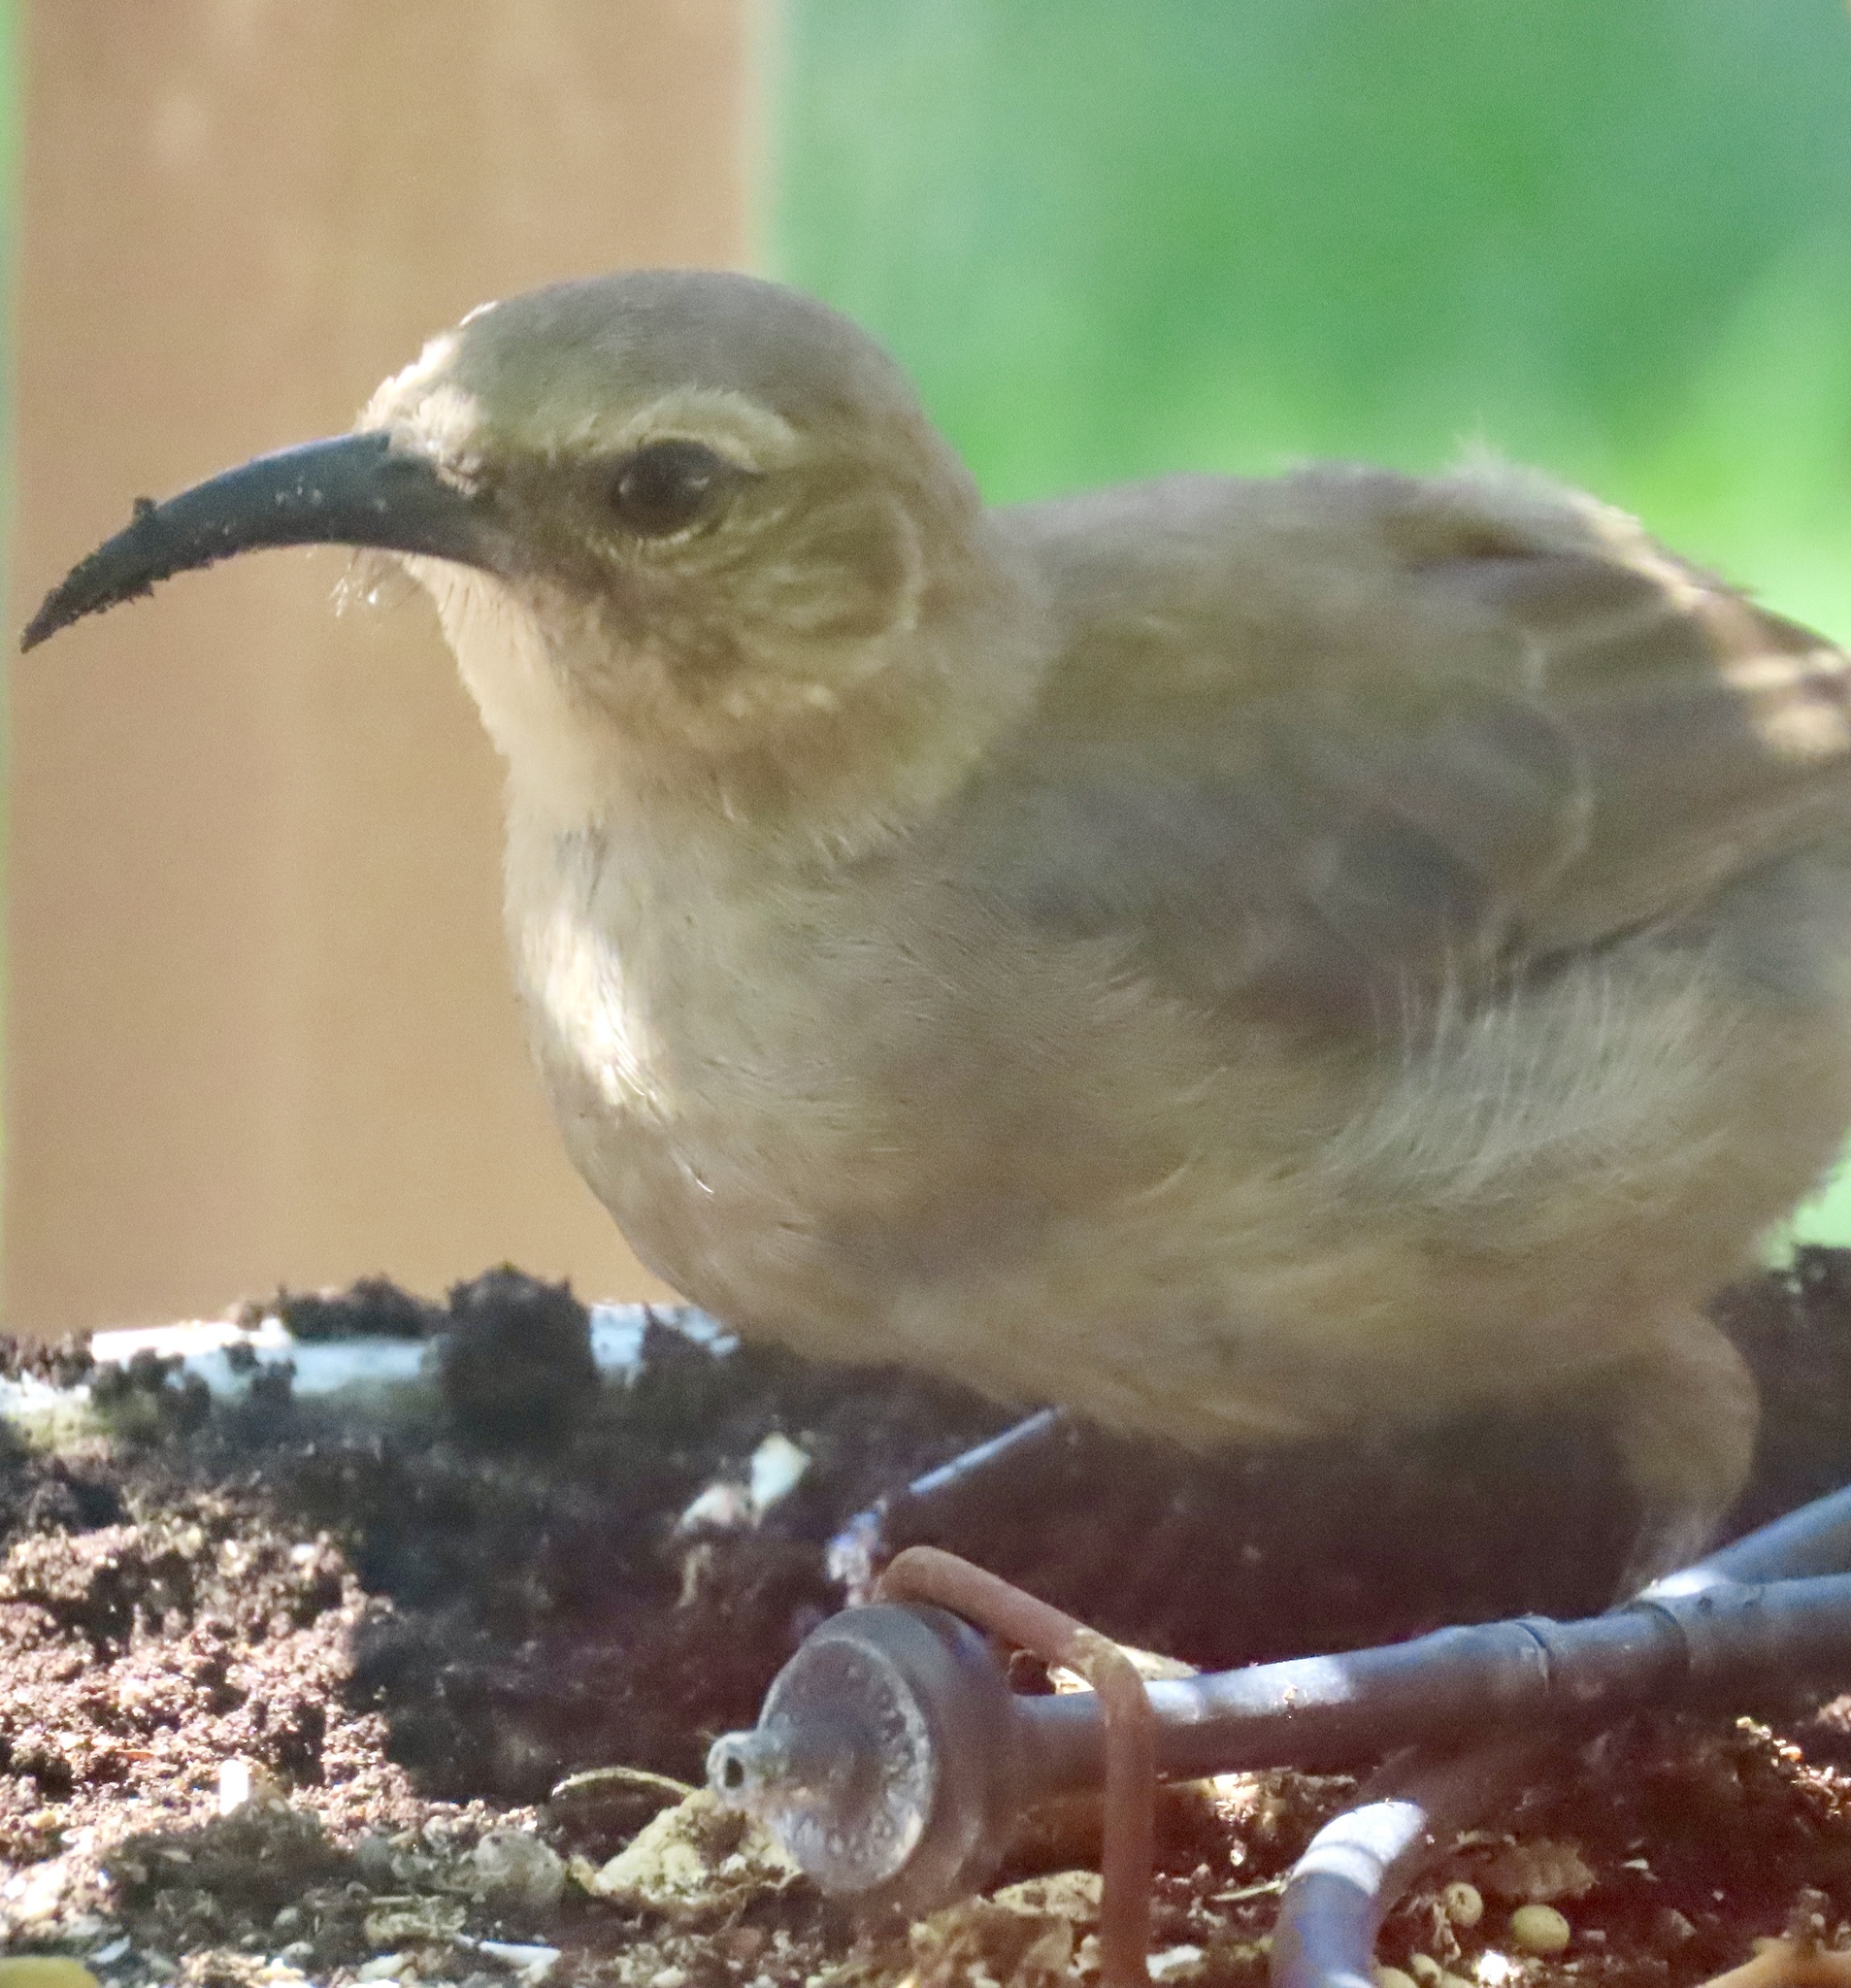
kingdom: Animalia
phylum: Chordata
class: Aves
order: Passeriformes
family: Mimidae
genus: Toxostoma
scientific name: Toxostoma redivivum
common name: California thrasher
